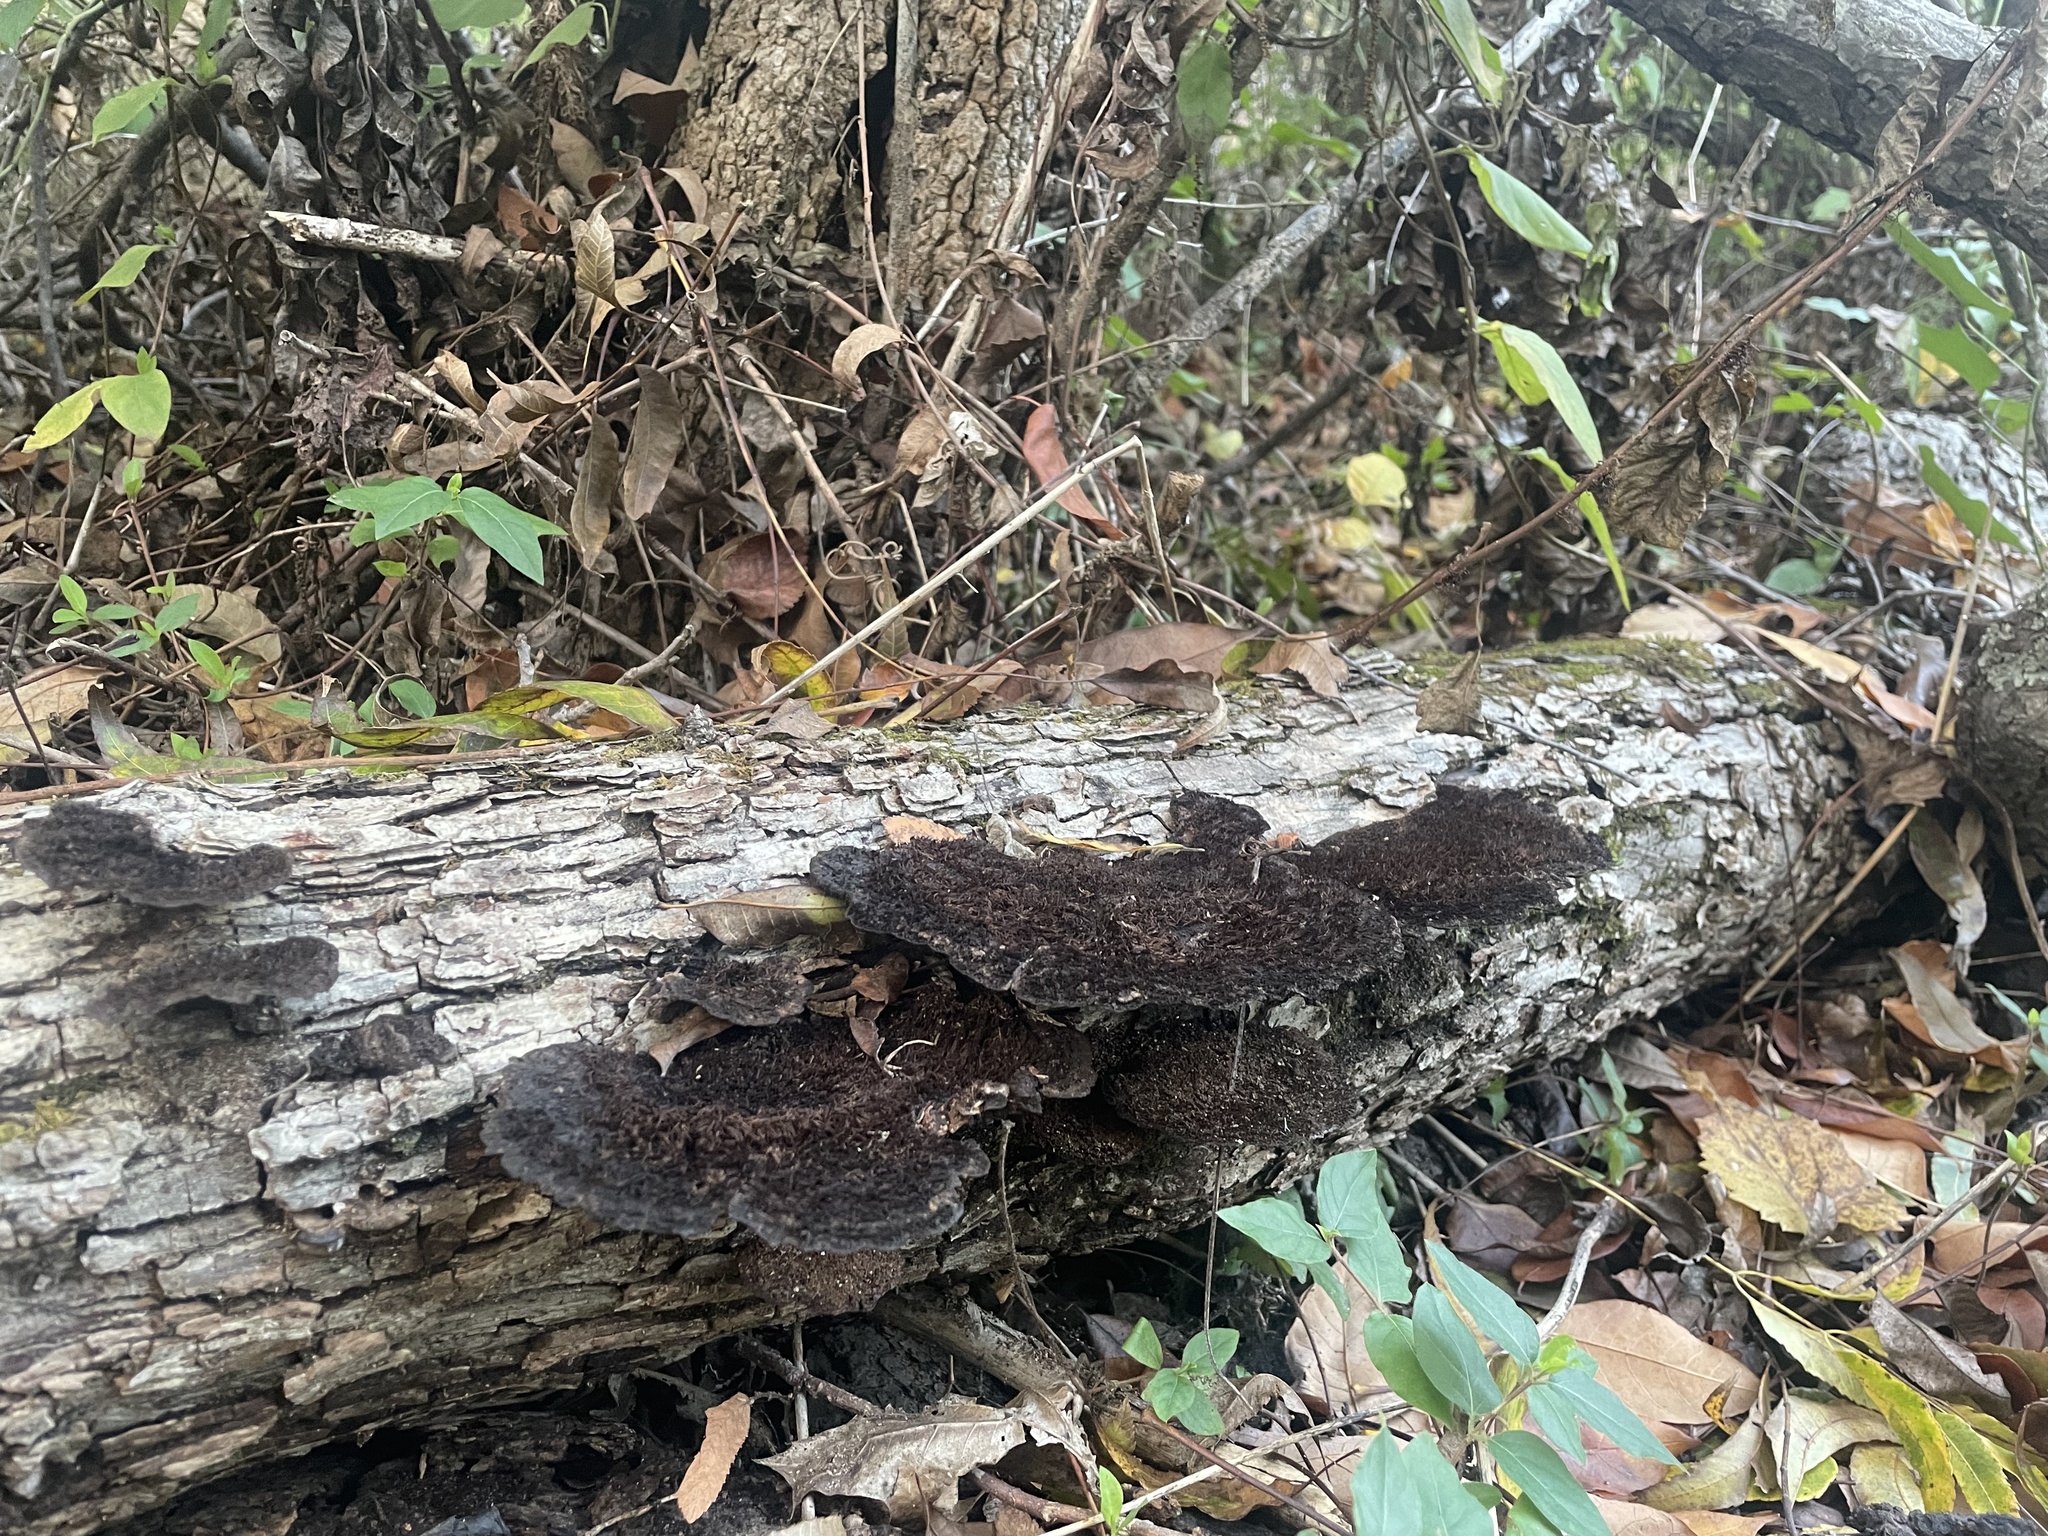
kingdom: Fungi
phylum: Basidiomycota
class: Agaricomycetes
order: Polyporales
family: Cerrenaceae
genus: Cerrena
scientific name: Cerrena hydnoides
